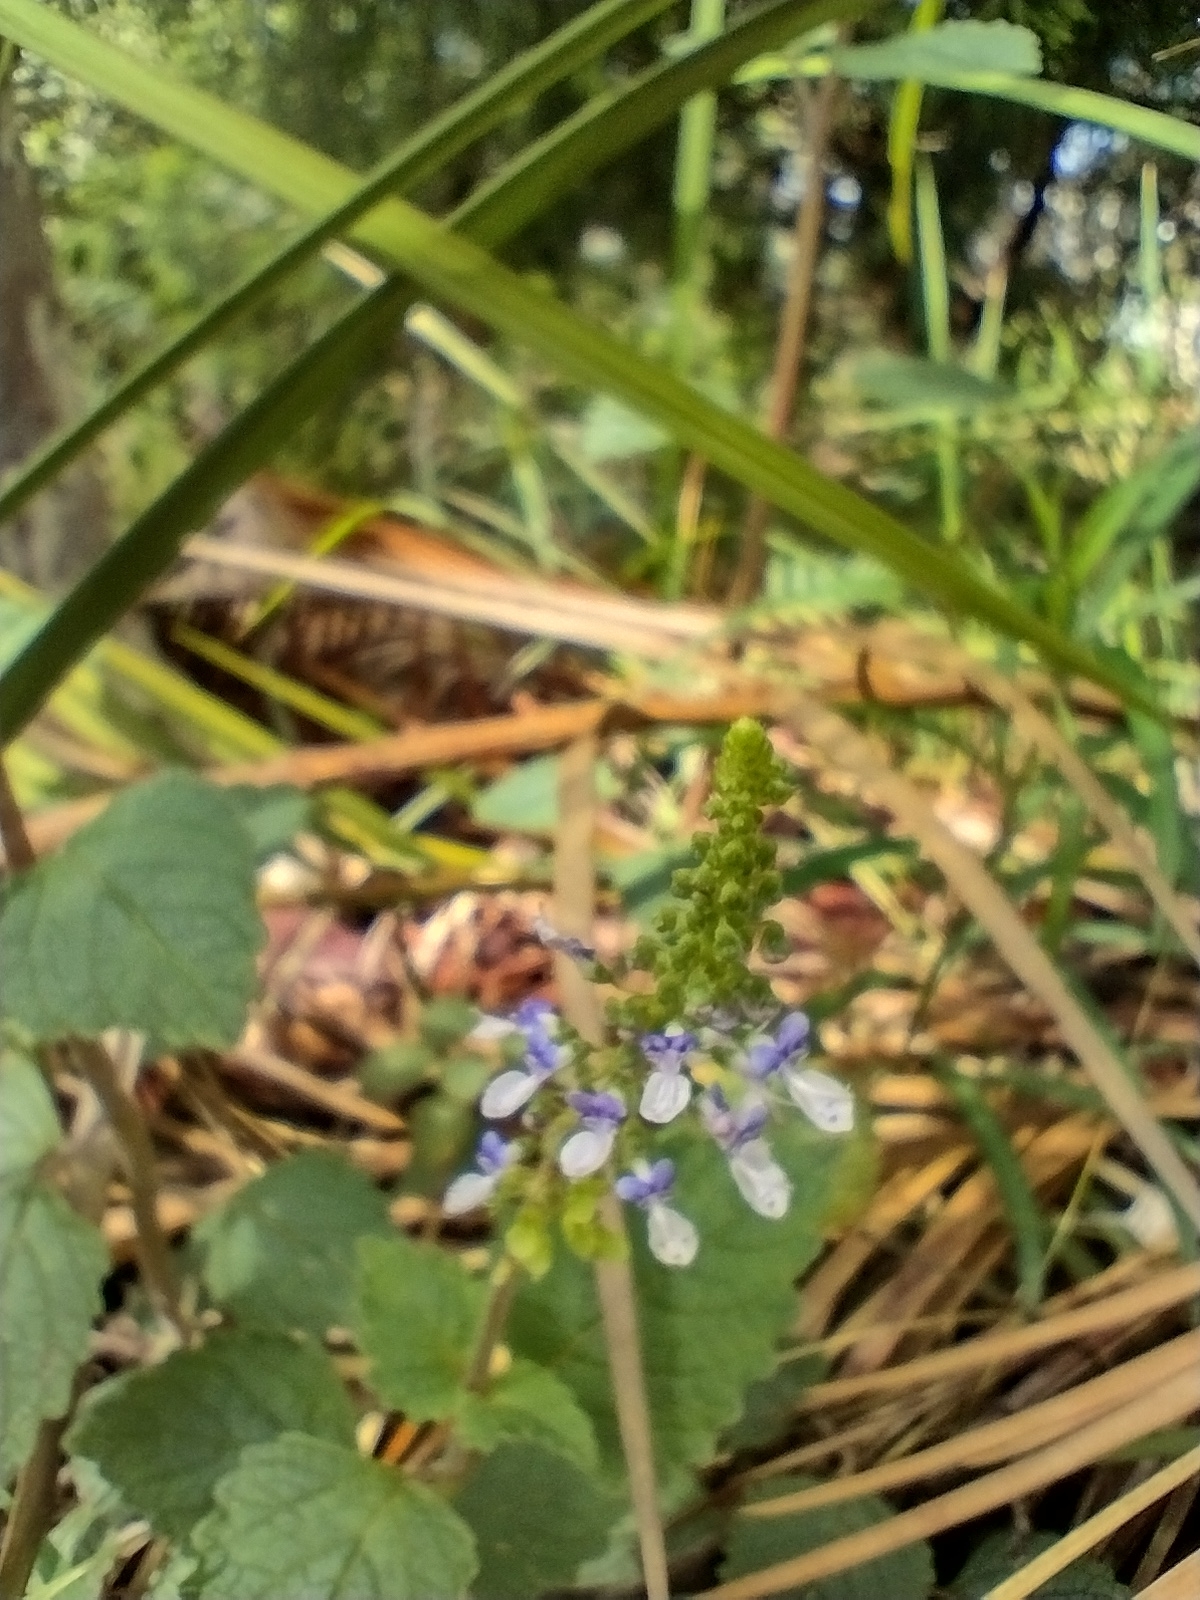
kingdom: Plantae
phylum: Tracheophyta
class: Magnoliopsida
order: Lamiales
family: Lamiaceae
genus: Coleus
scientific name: Coleus australis
